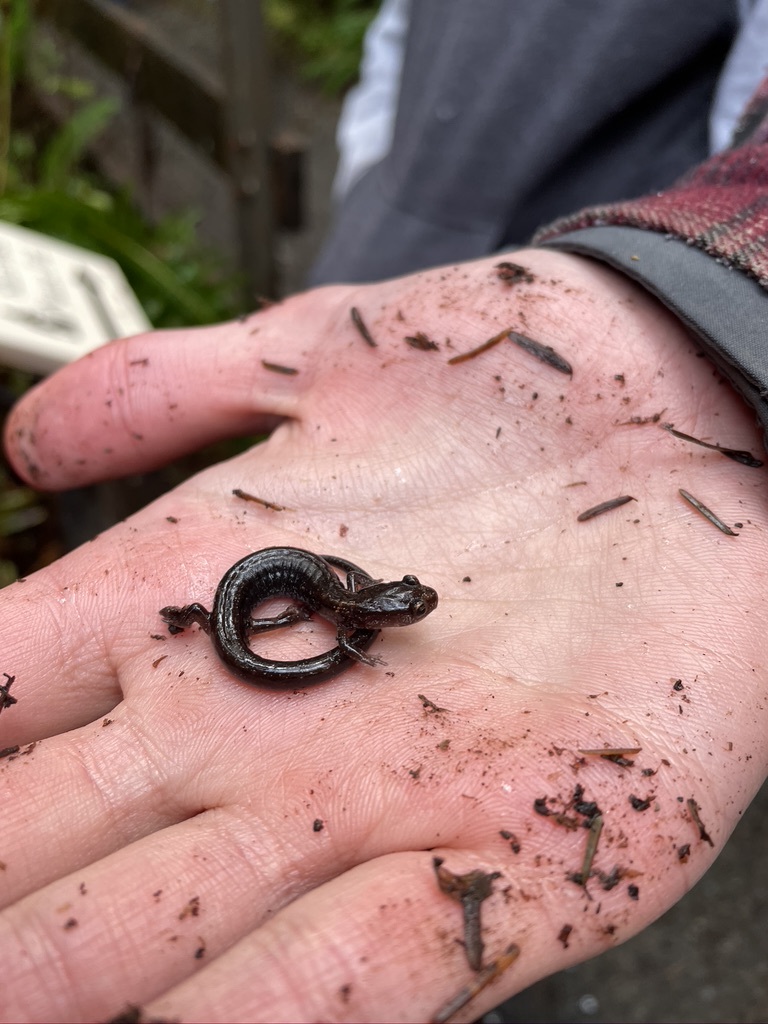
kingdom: Animalia
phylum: Chordata
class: Amphibia
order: Caudata
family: Plethodontidae
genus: Plethodon
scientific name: Plethodon vehiculum
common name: Western red-backed salamander
